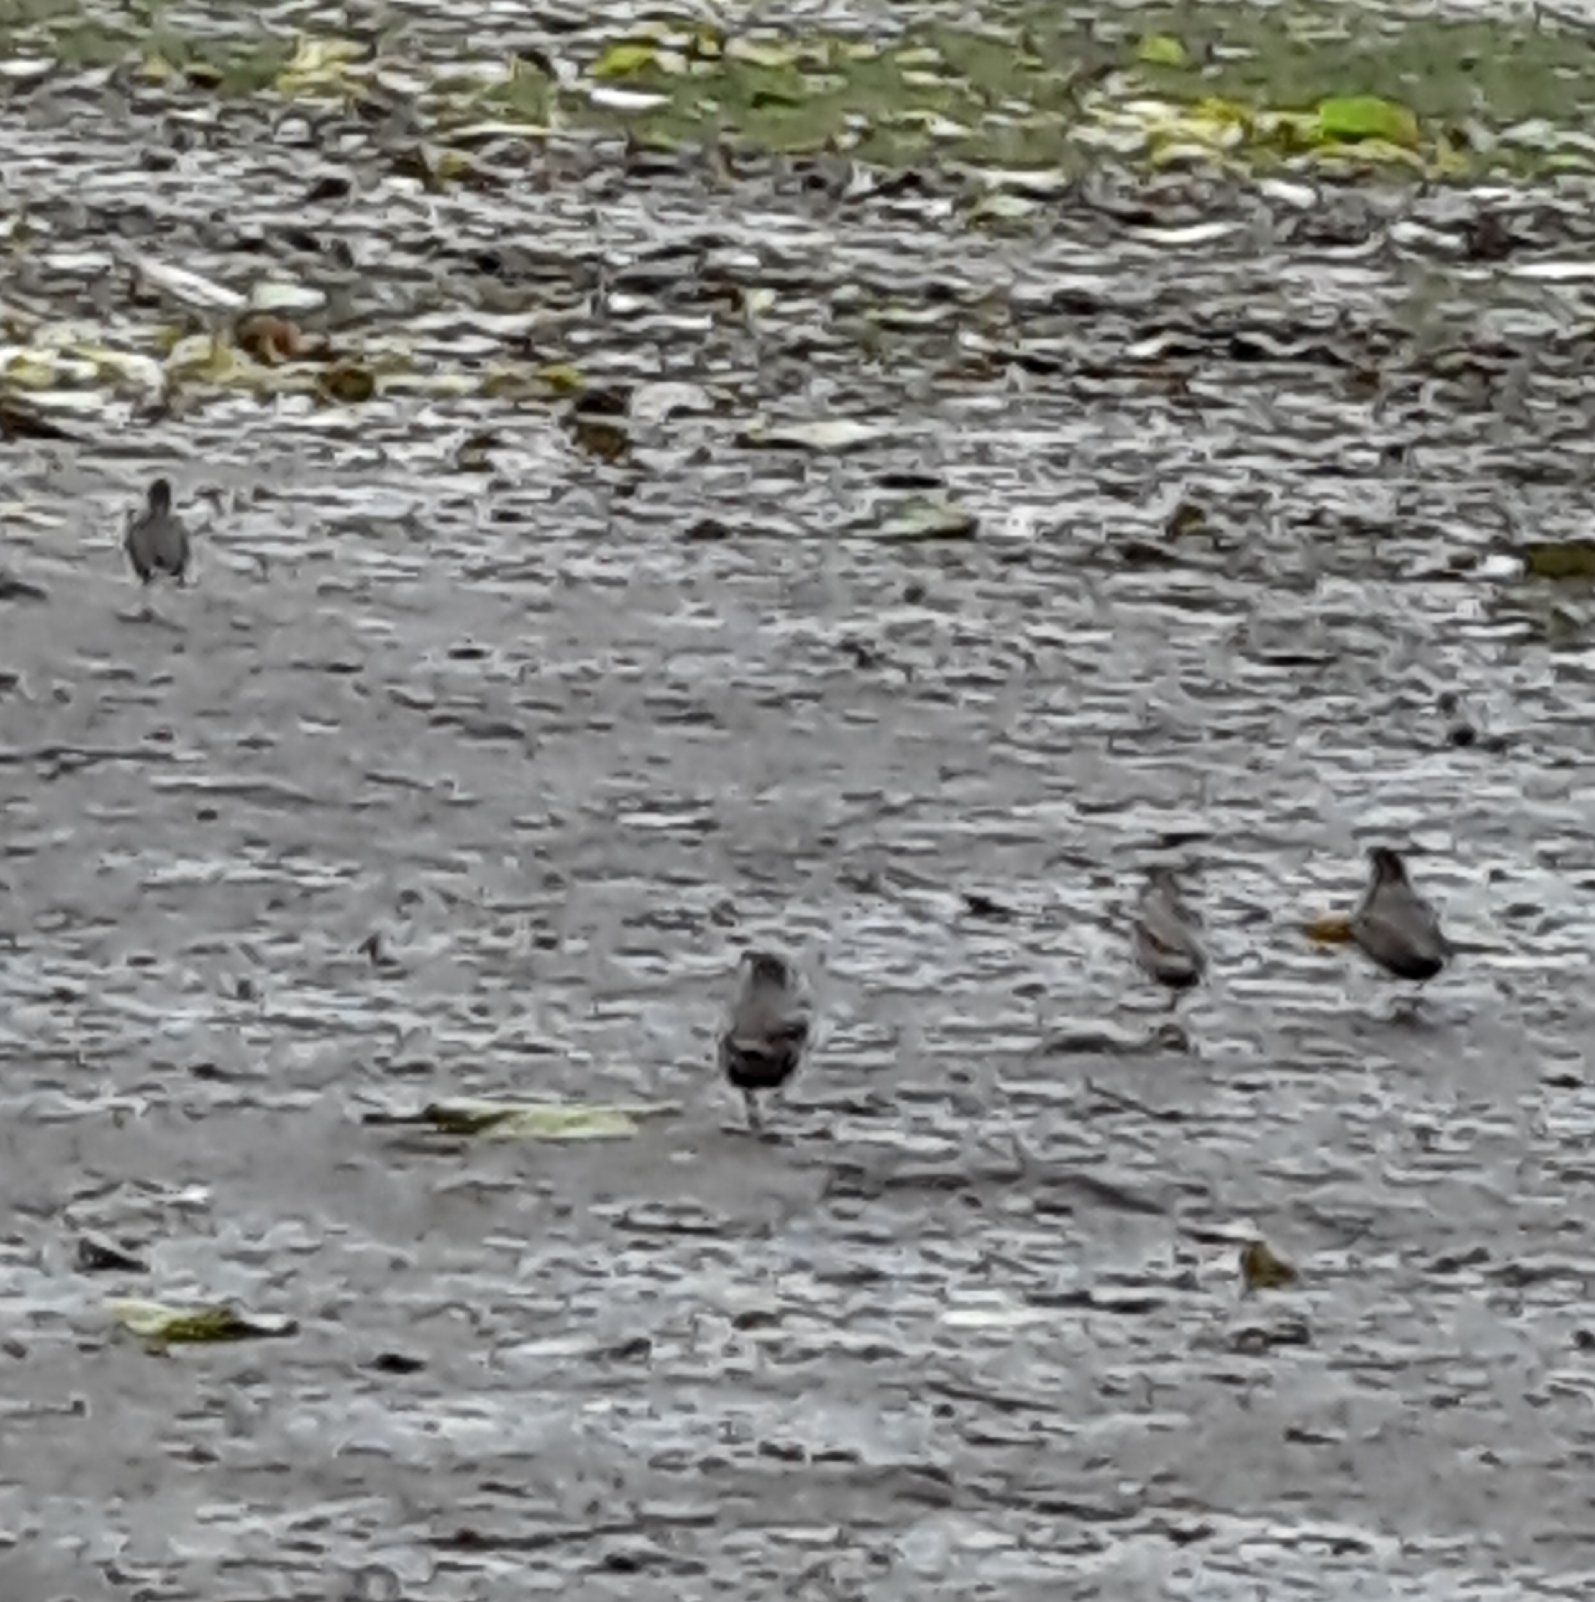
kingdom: Animalia
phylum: Chordata
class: Aves
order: Passeriformes
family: Sturnidae
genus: Sturnus
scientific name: Sturnus vulgaris
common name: Common starling
